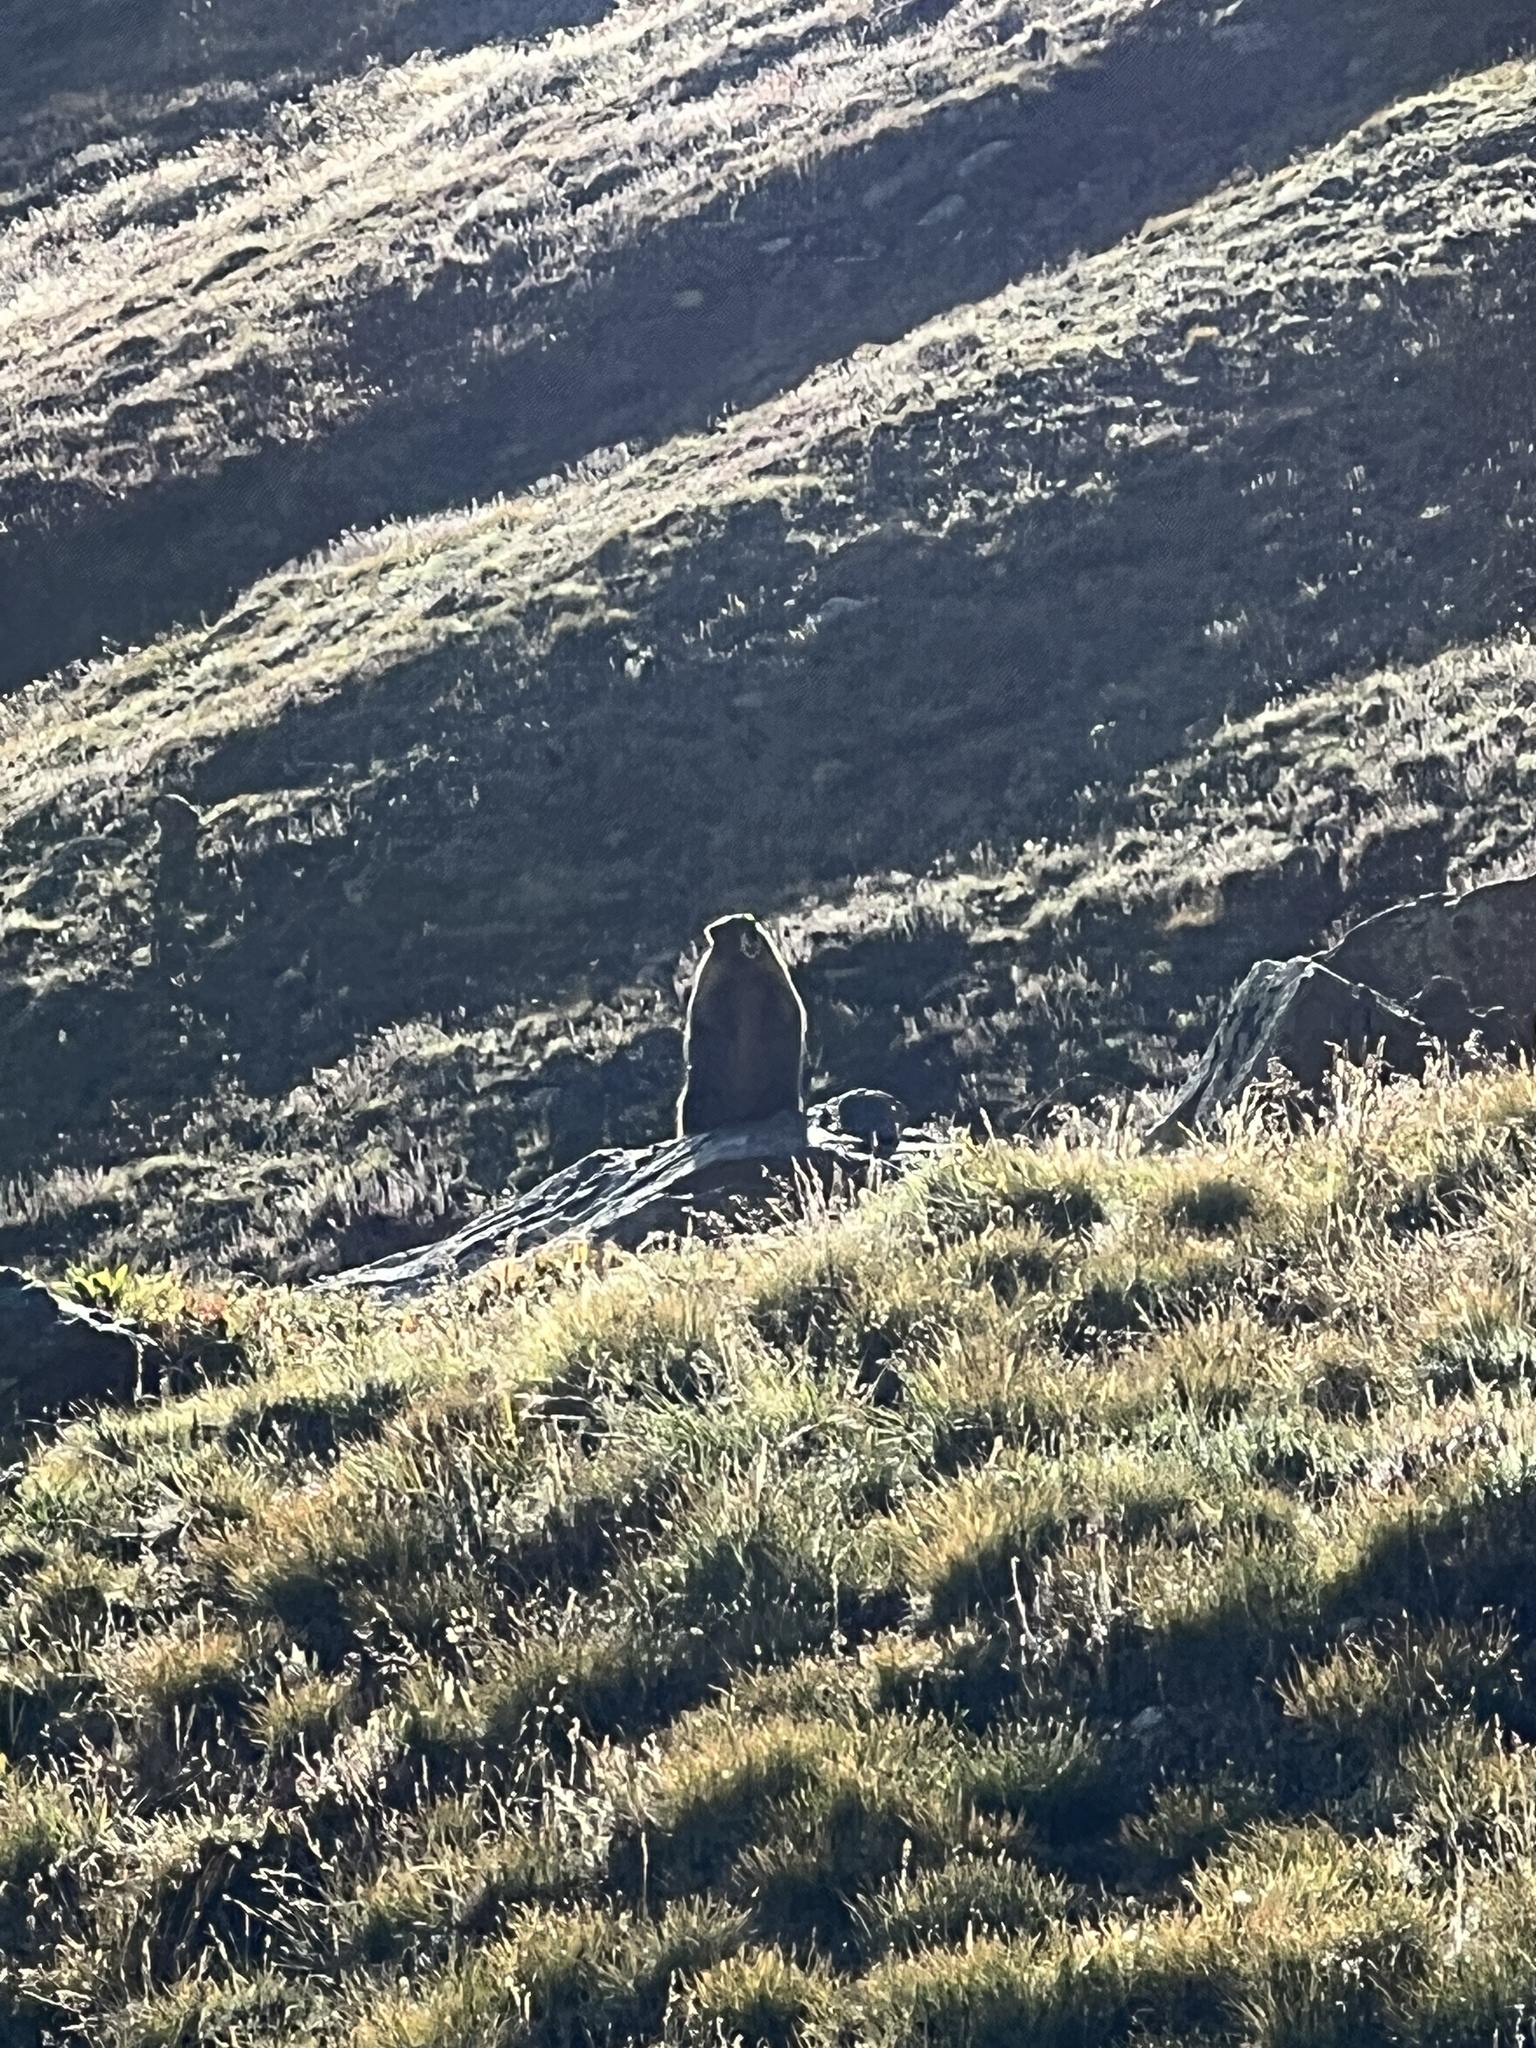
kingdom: Animalia
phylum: Chordata
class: Mammalia
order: Rodentia
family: Sciuridae
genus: Marmota
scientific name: Marmota flaviventris
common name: Yellow-bellied marmot
